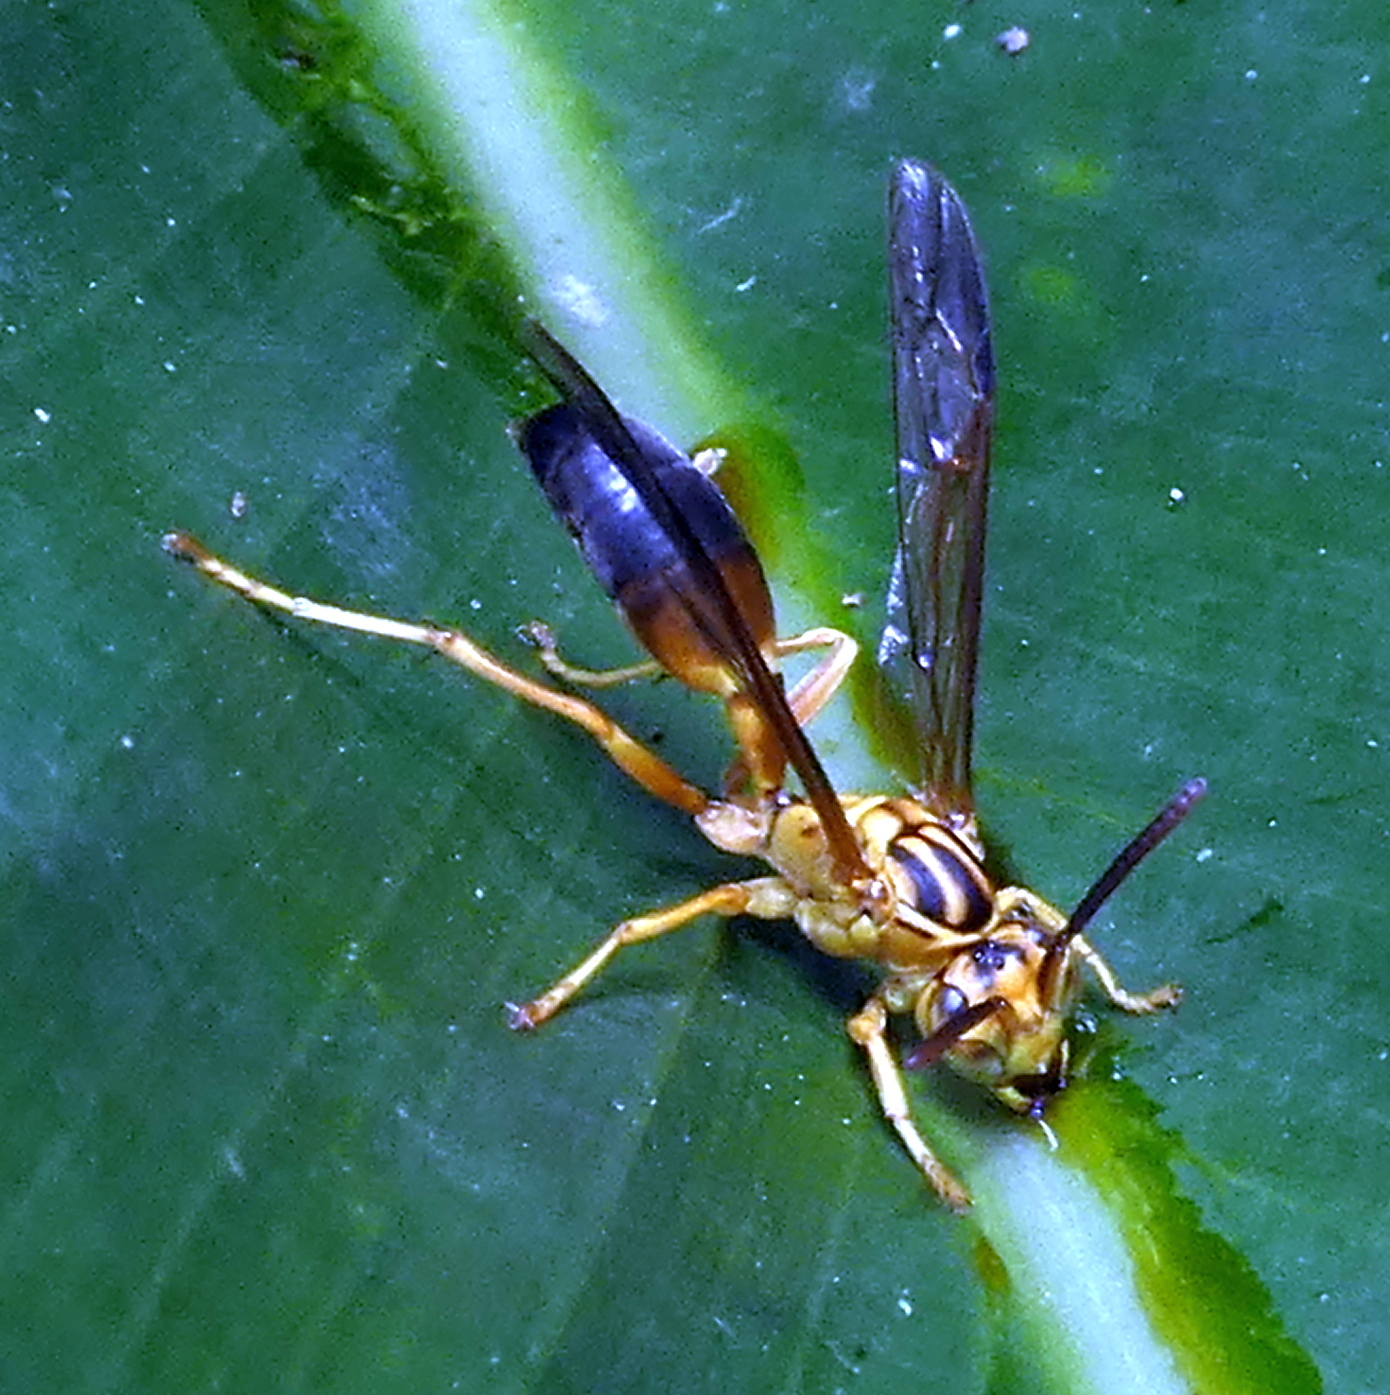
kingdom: Animalia
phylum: Arthropoda
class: Insecta
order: Hymenoptera
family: Vespidae
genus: Agelaia
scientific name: Agelaia pallipes
